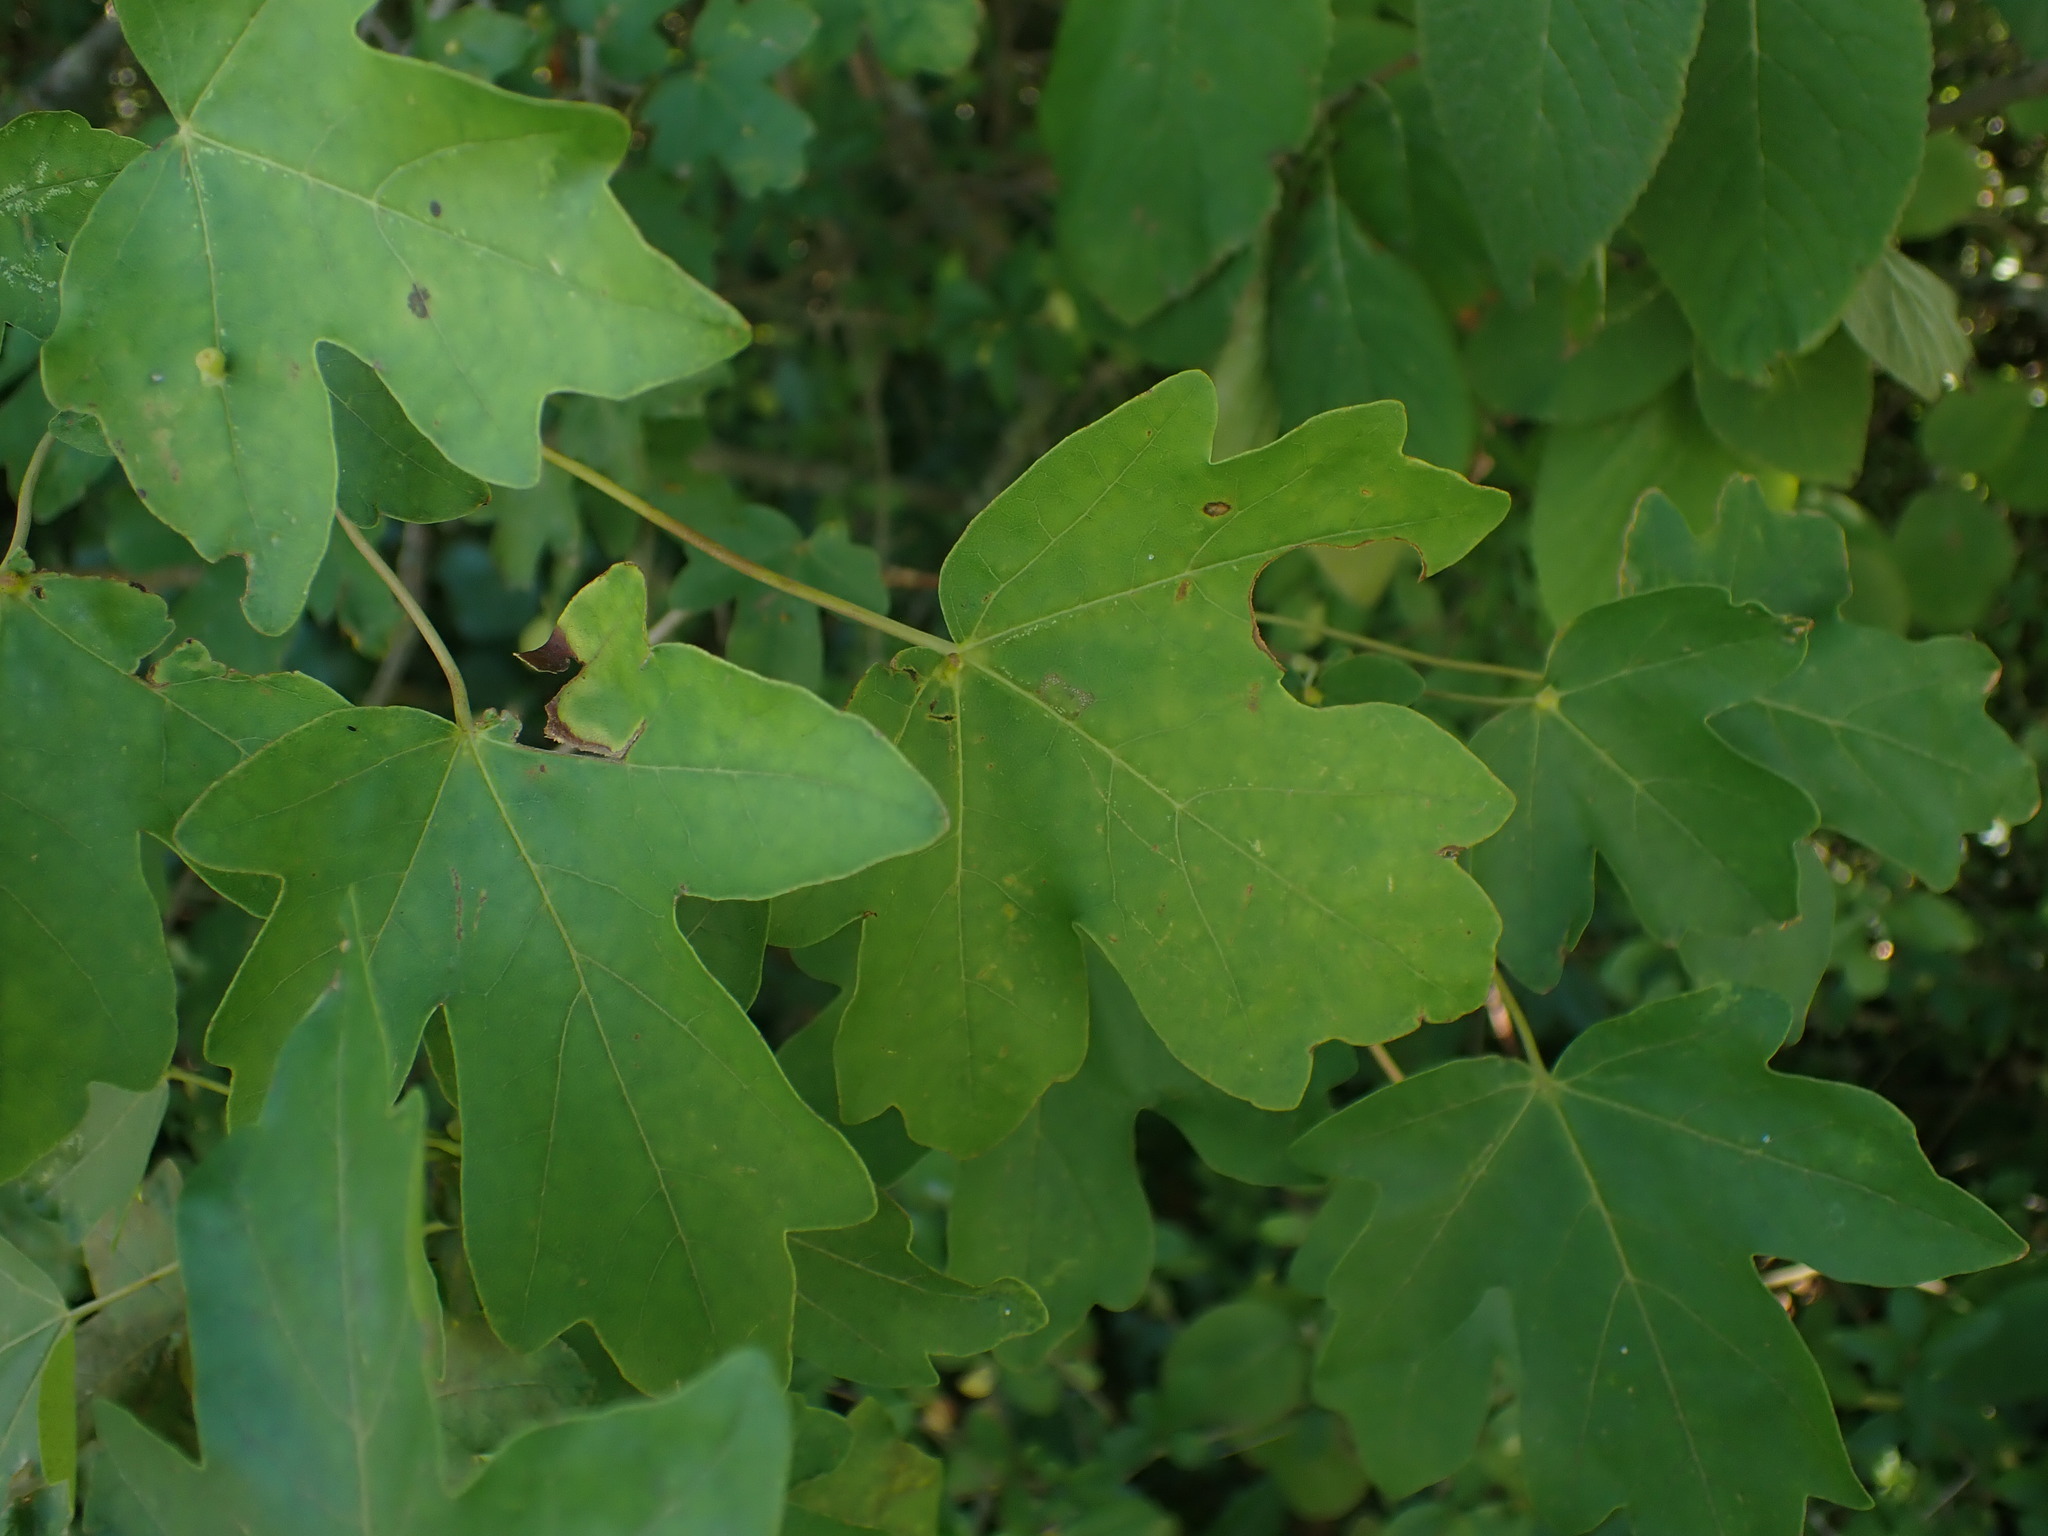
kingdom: Plantae
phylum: Tracheophyta
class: Magnoliopsida
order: Sapindales
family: Sapindaceae
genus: Acer
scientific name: Acer campestre
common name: Field maple
